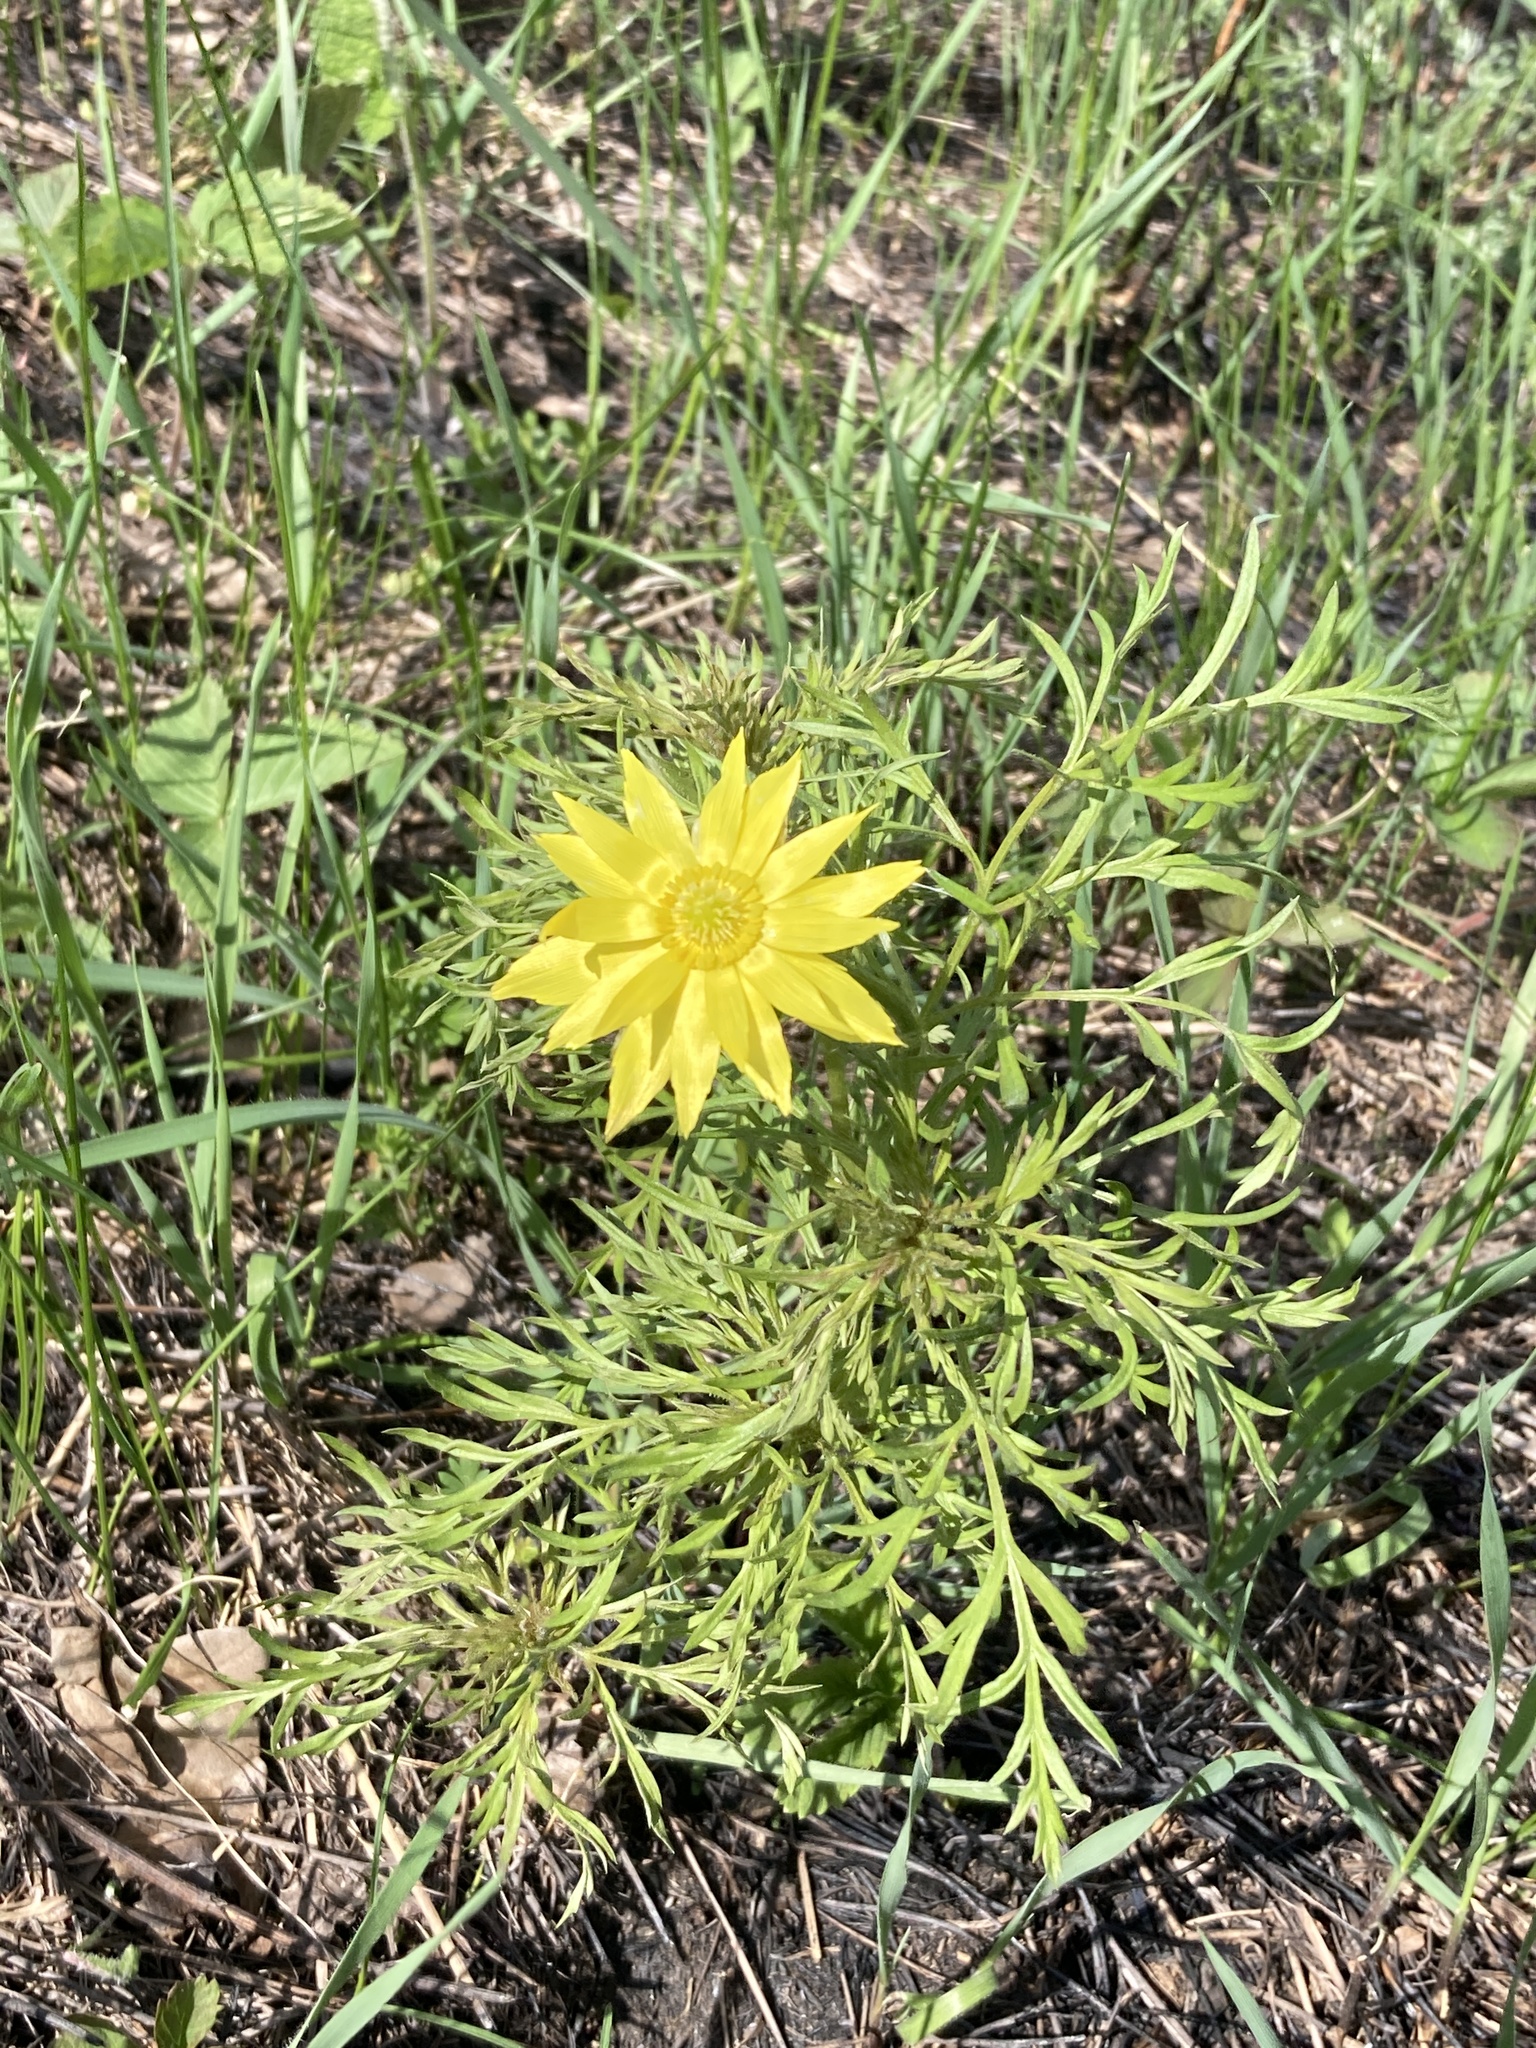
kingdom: Plantae
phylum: Tracheophyta
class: Magnoliopsida
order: Ranunculales
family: Ranunculaceae
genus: Adonis
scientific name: Adonis volgensis
